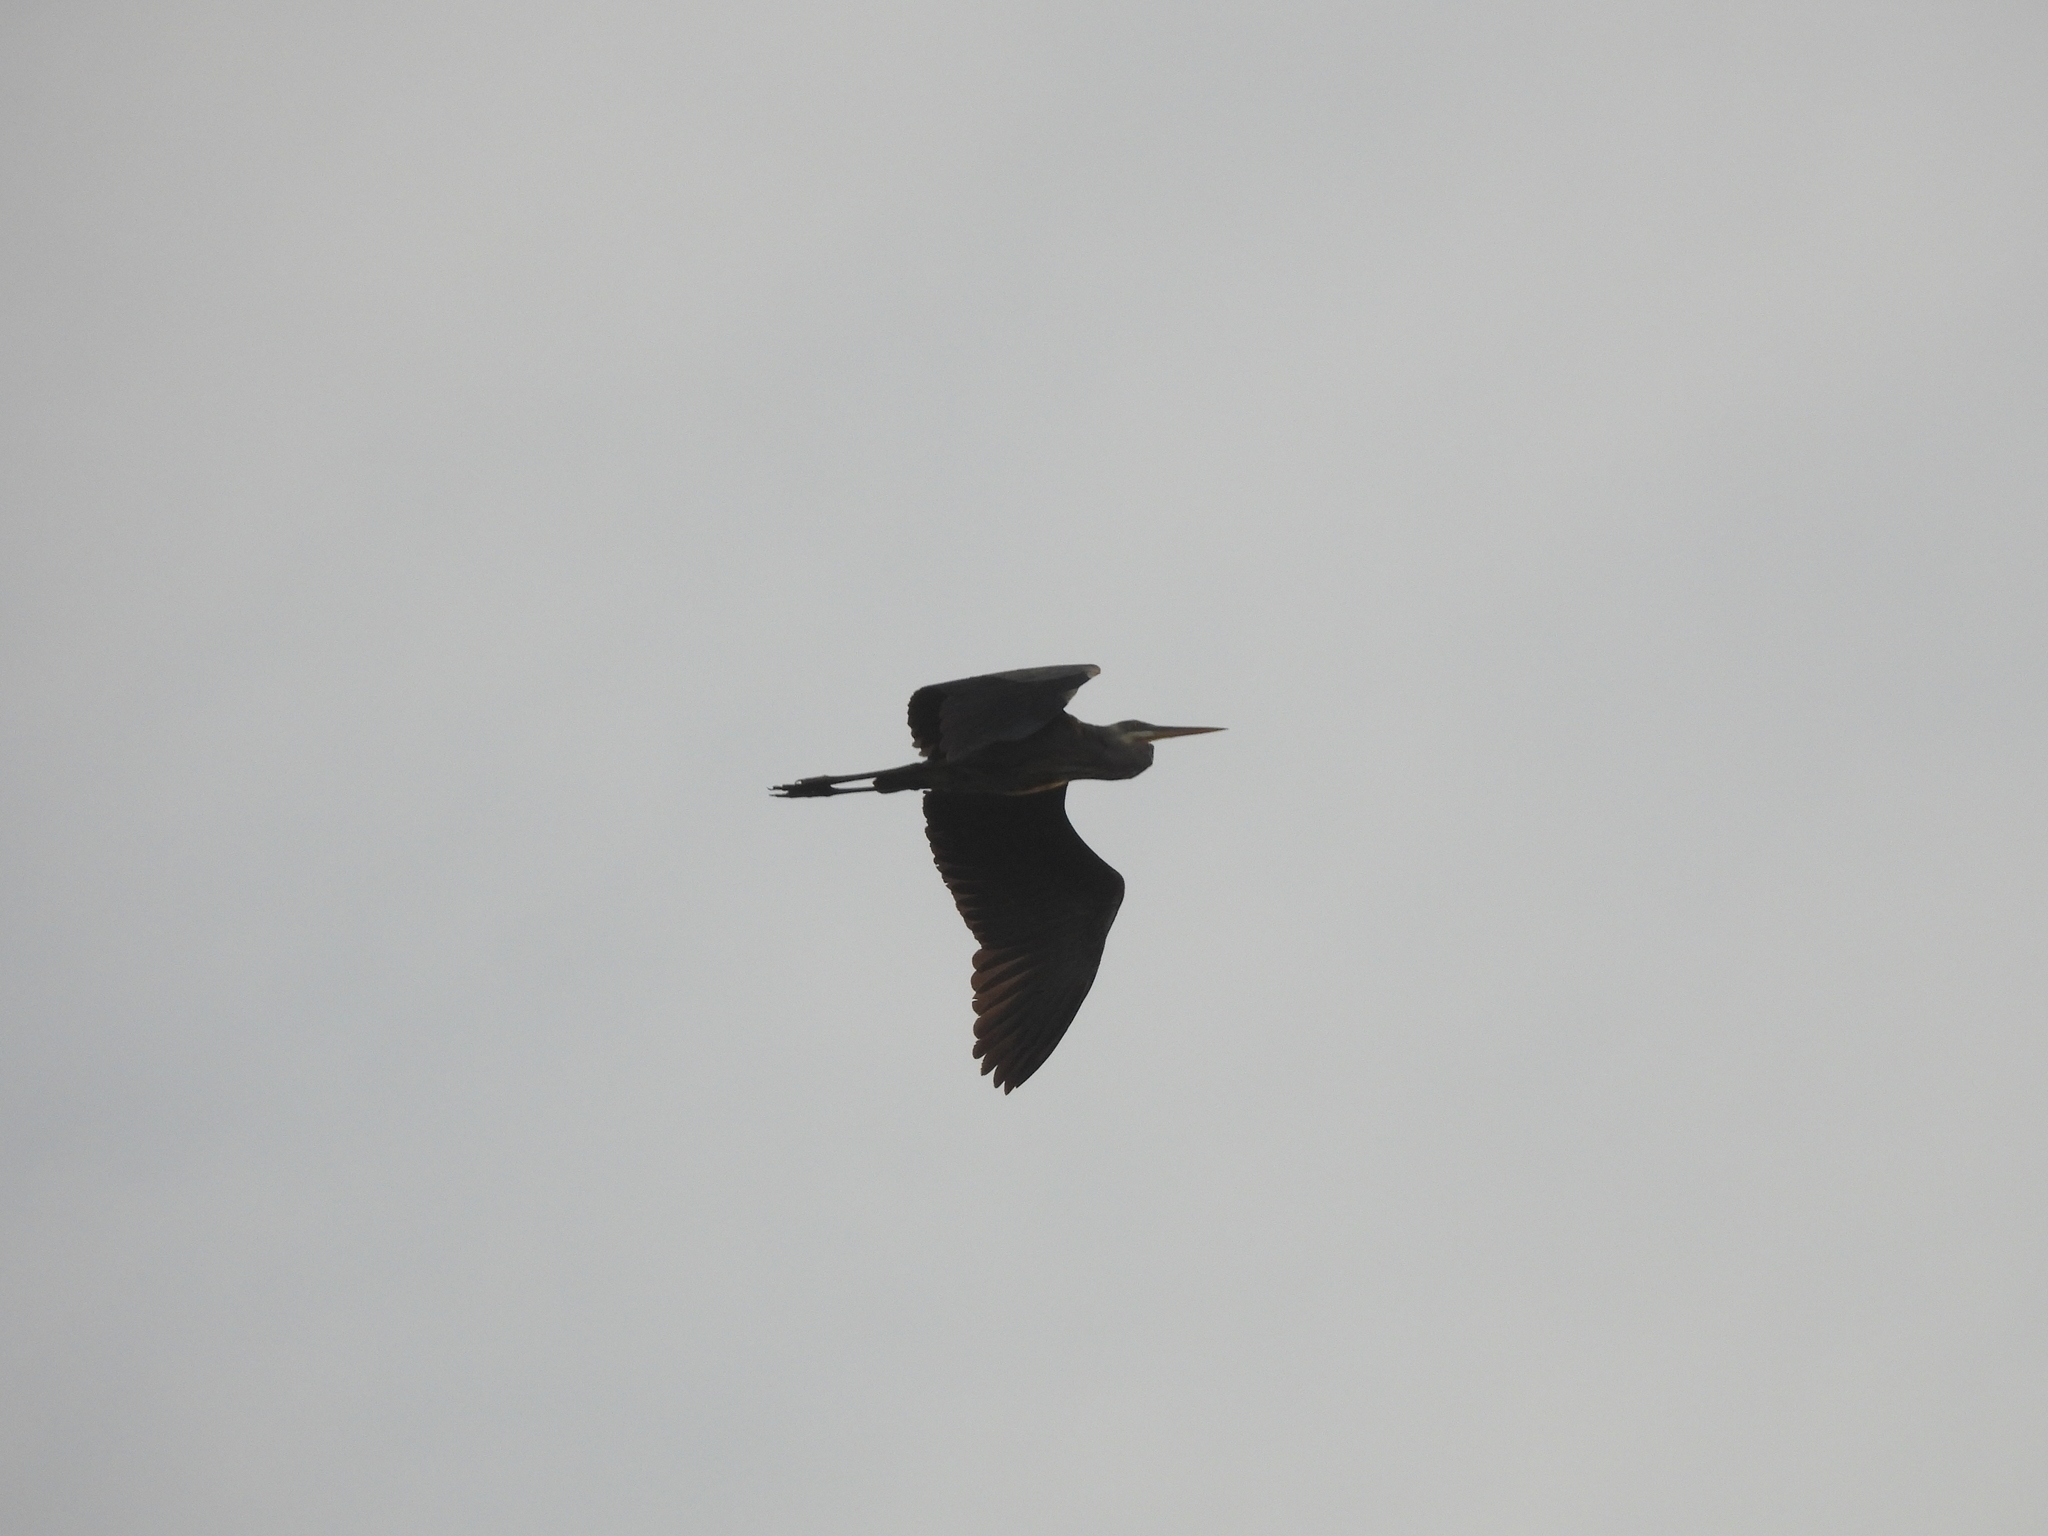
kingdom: Animalia
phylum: Chordata
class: Aves
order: Pelecaniformes
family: Ardeidae
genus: Ardea
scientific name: Ardea herodias
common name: Great blue heron
